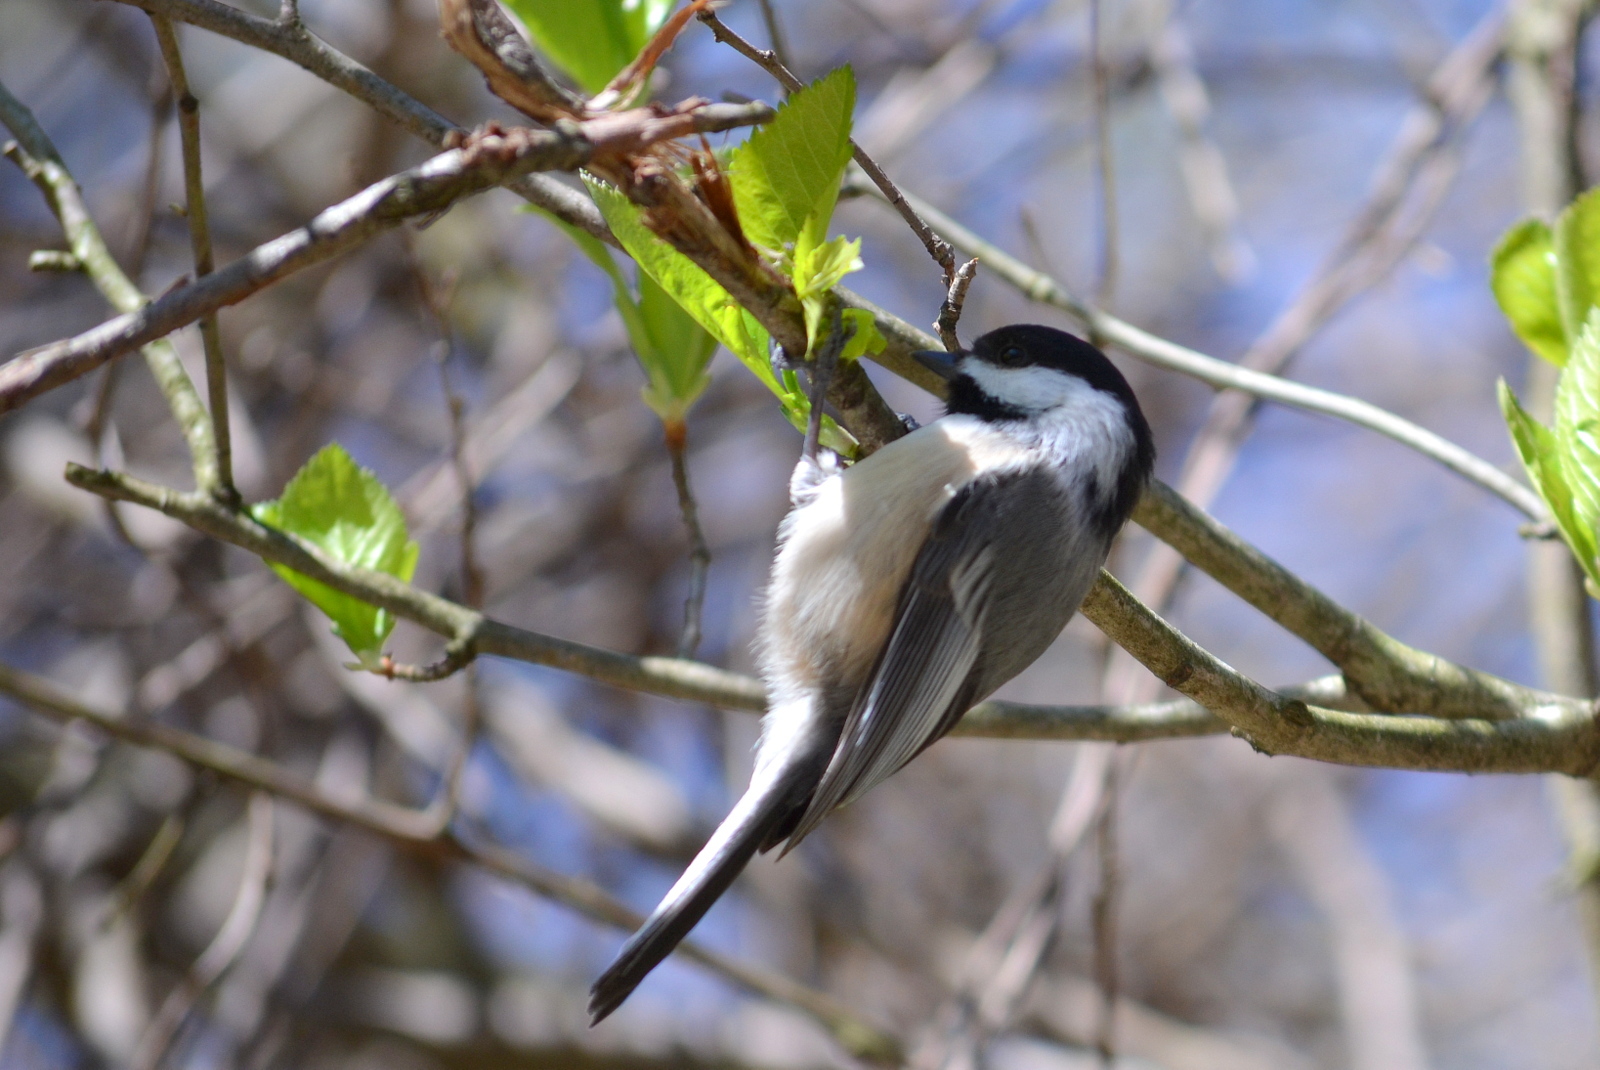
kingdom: Animalia
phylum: Chordata
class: Aves
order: Passeriformes
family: Paridae
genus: Poecile
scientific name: Poecile atricapillus
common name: Black-capped chickadee
